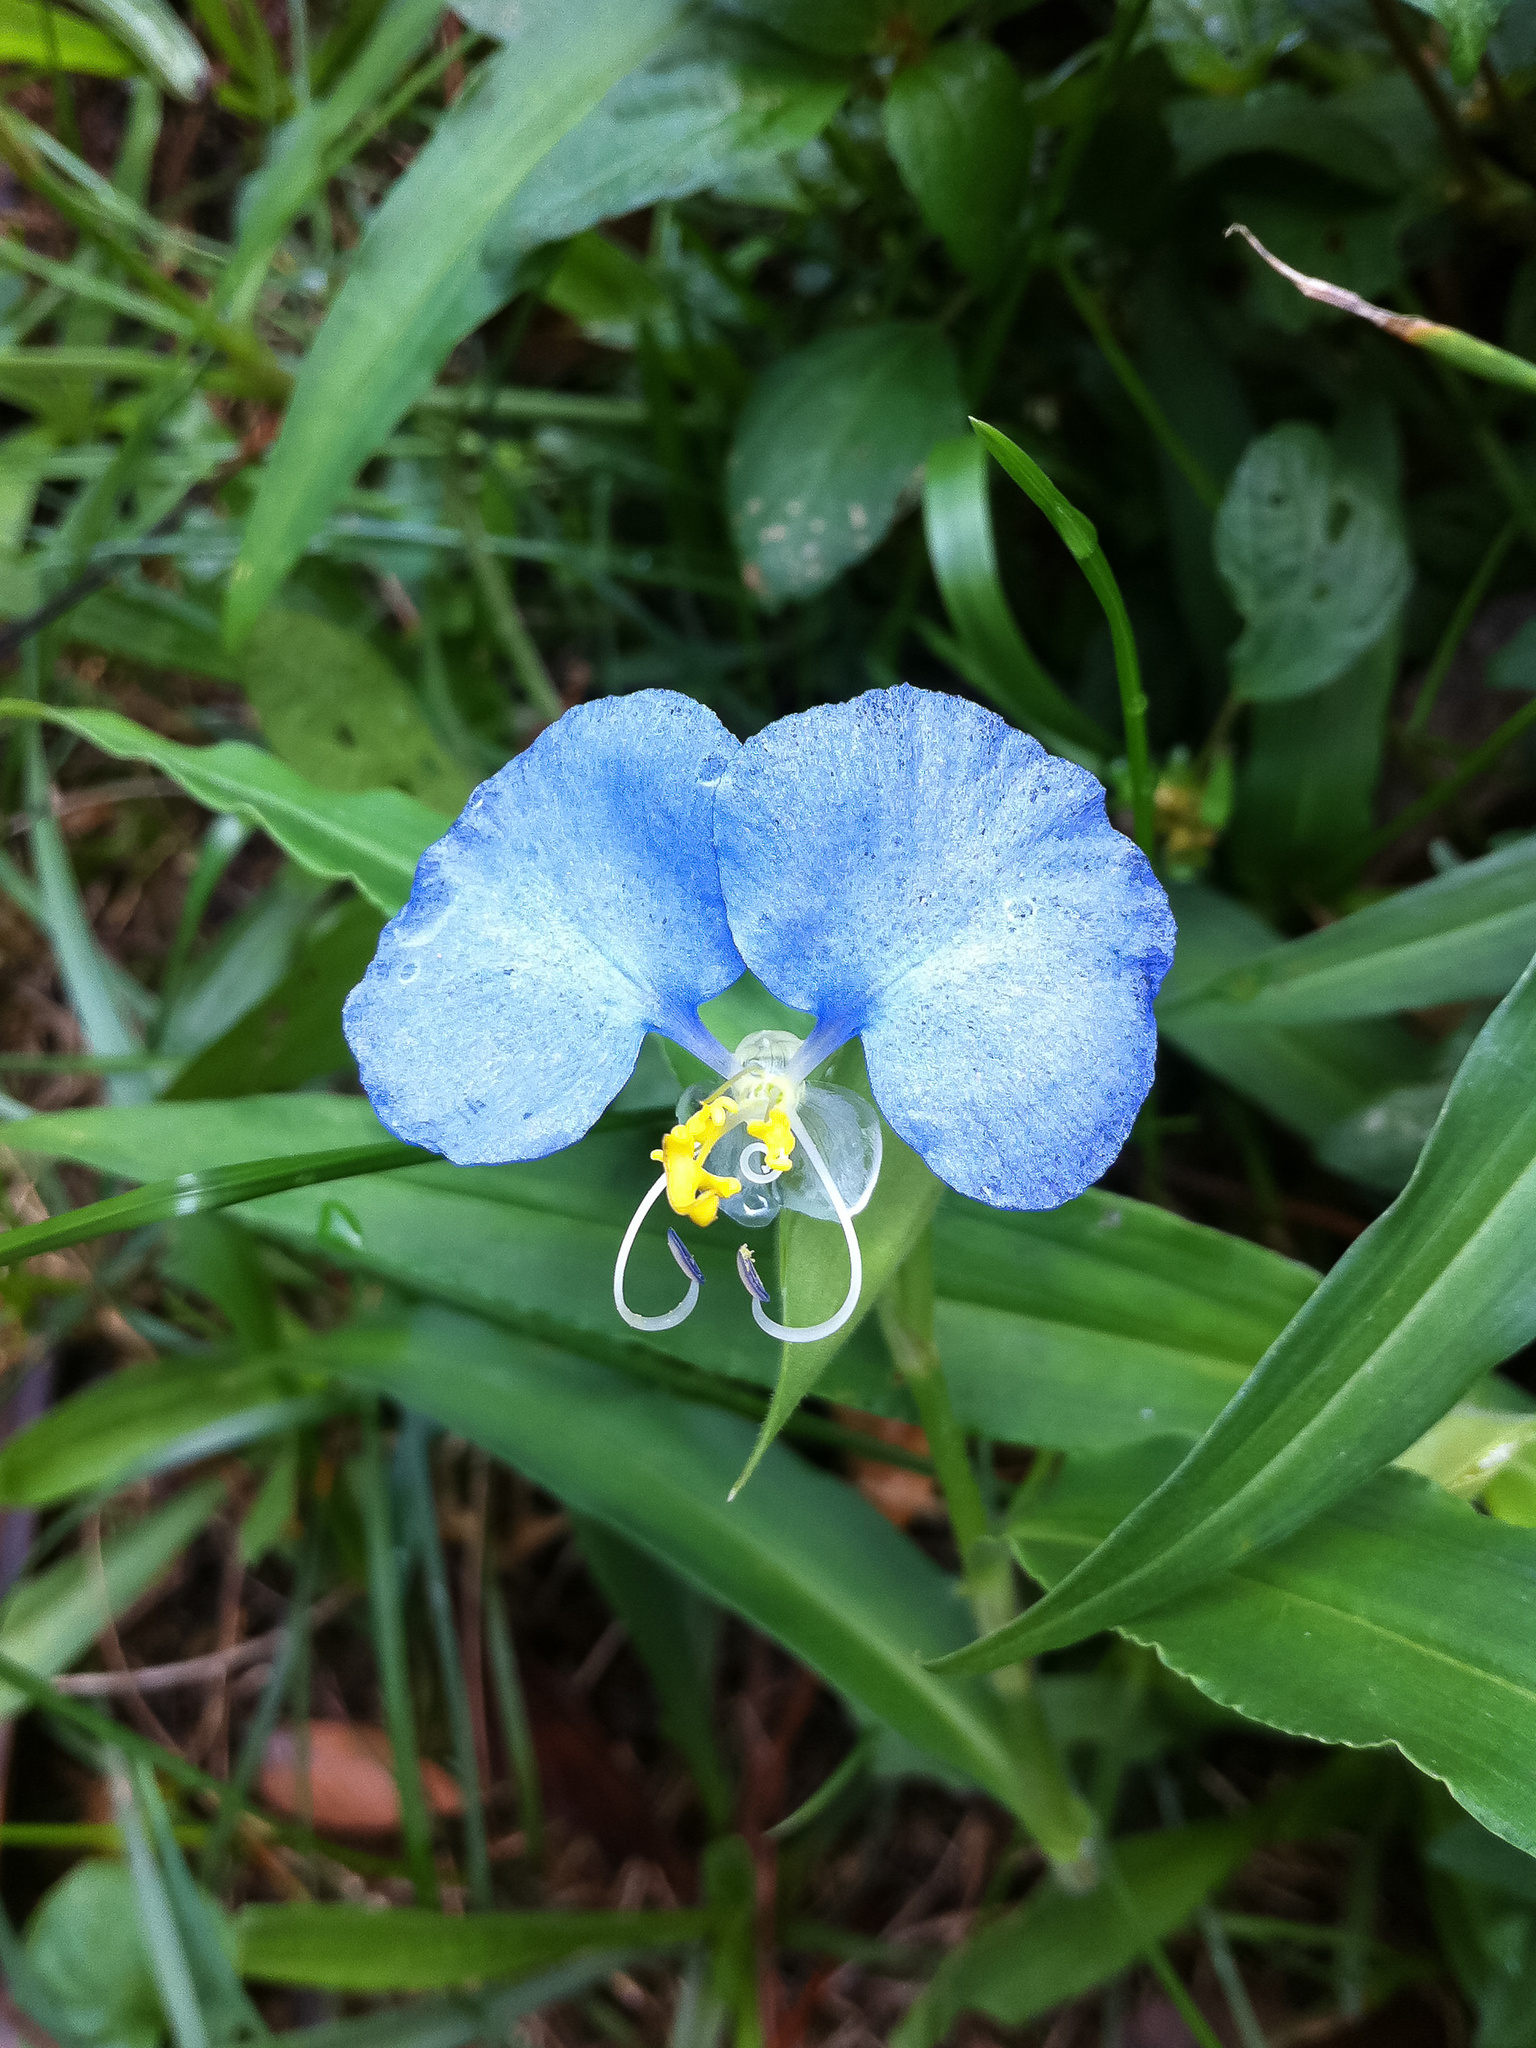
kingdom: Plantae
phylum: Tracheophyta
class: Liliopsida
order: Commelinales
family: Commelinaceae
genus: Commelina
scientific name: Commelina erecta
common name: Blousel blommetjie
